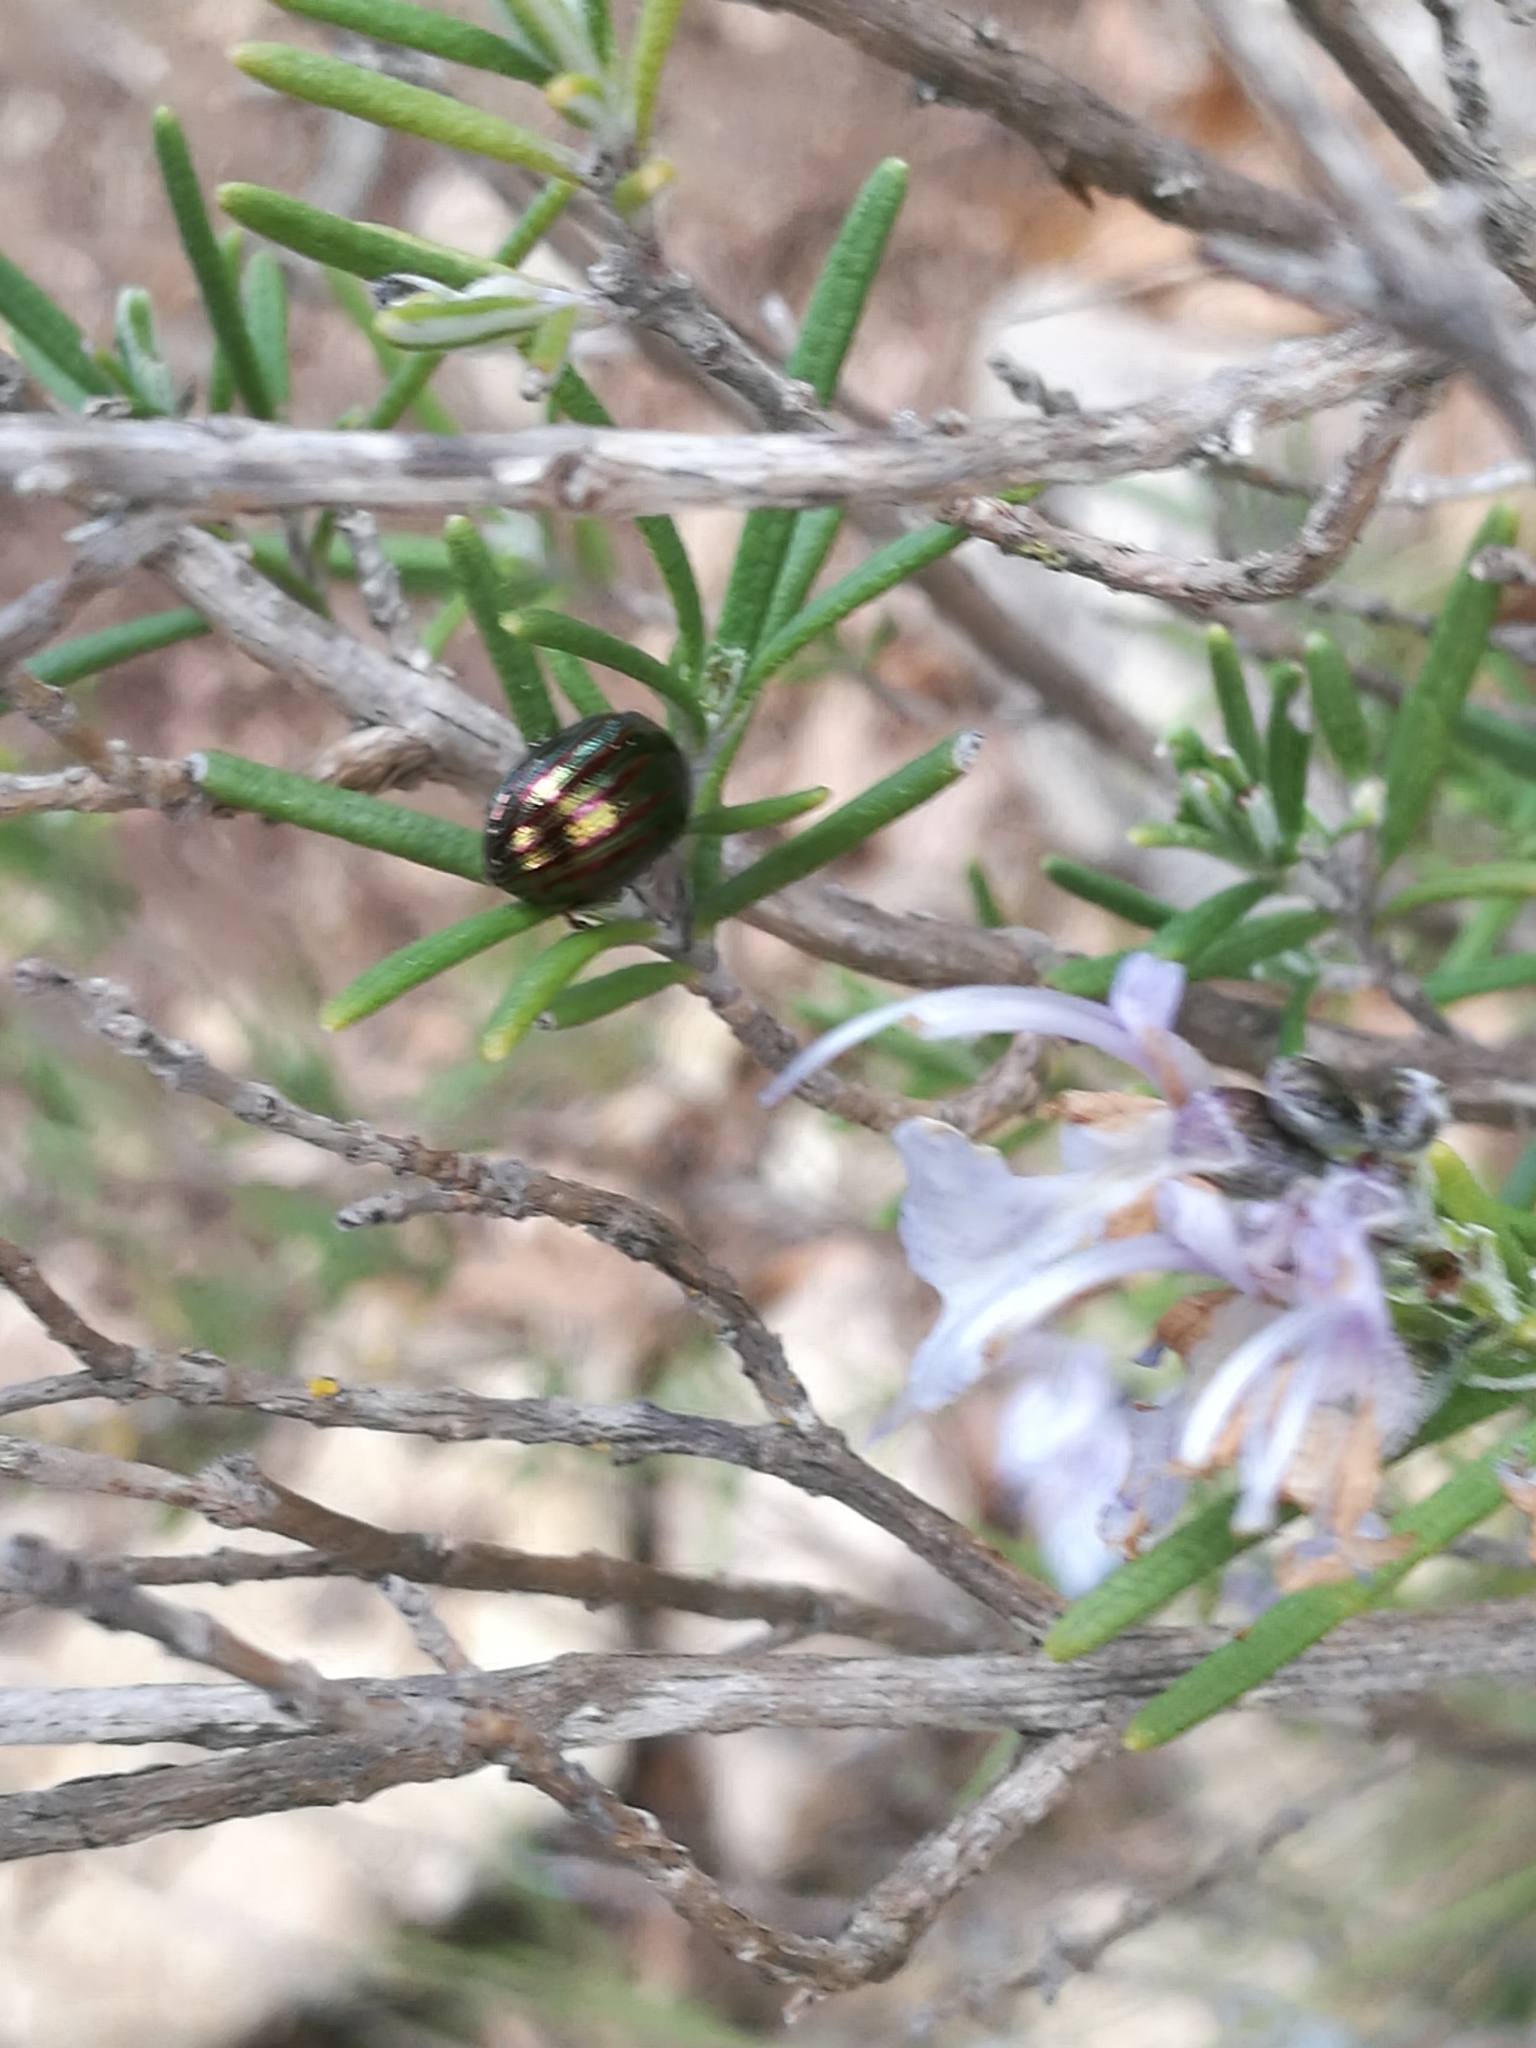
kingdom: Animalia
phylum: Arthropoda
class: Insecta
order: Coleoptera
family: Chrysomelidae
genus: Chrysolina
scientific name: Chrysolina americana
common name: Rosemary beetle
